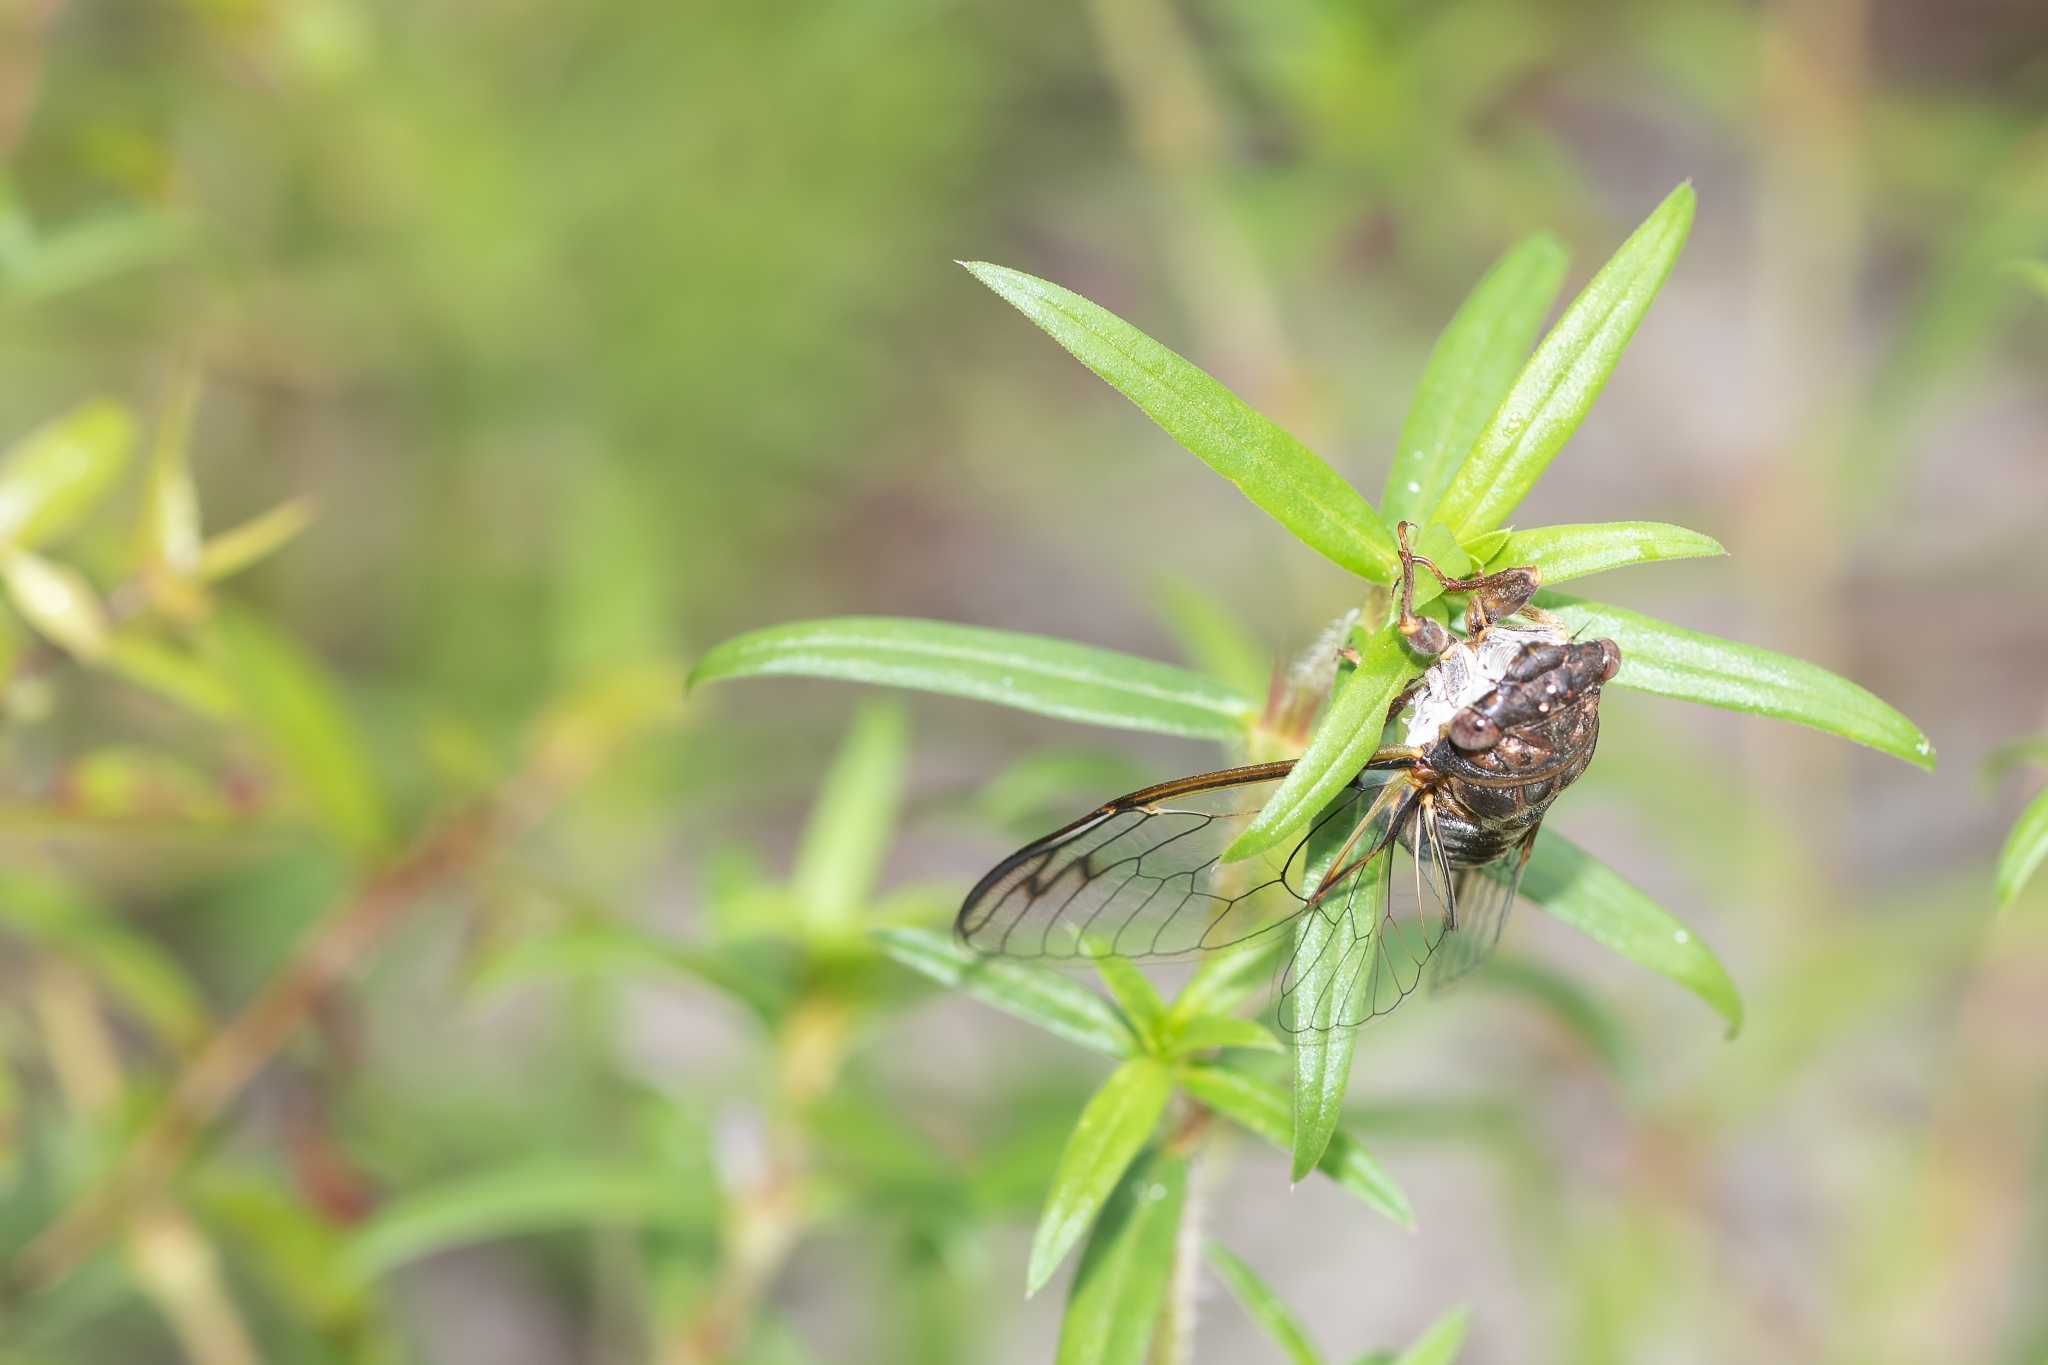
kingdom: Animalia
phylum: Arthropoda
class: Insecta
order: Hemiptera
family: Cicadidae
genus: Diceroprocta
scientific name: Diceroprocta olympusa
